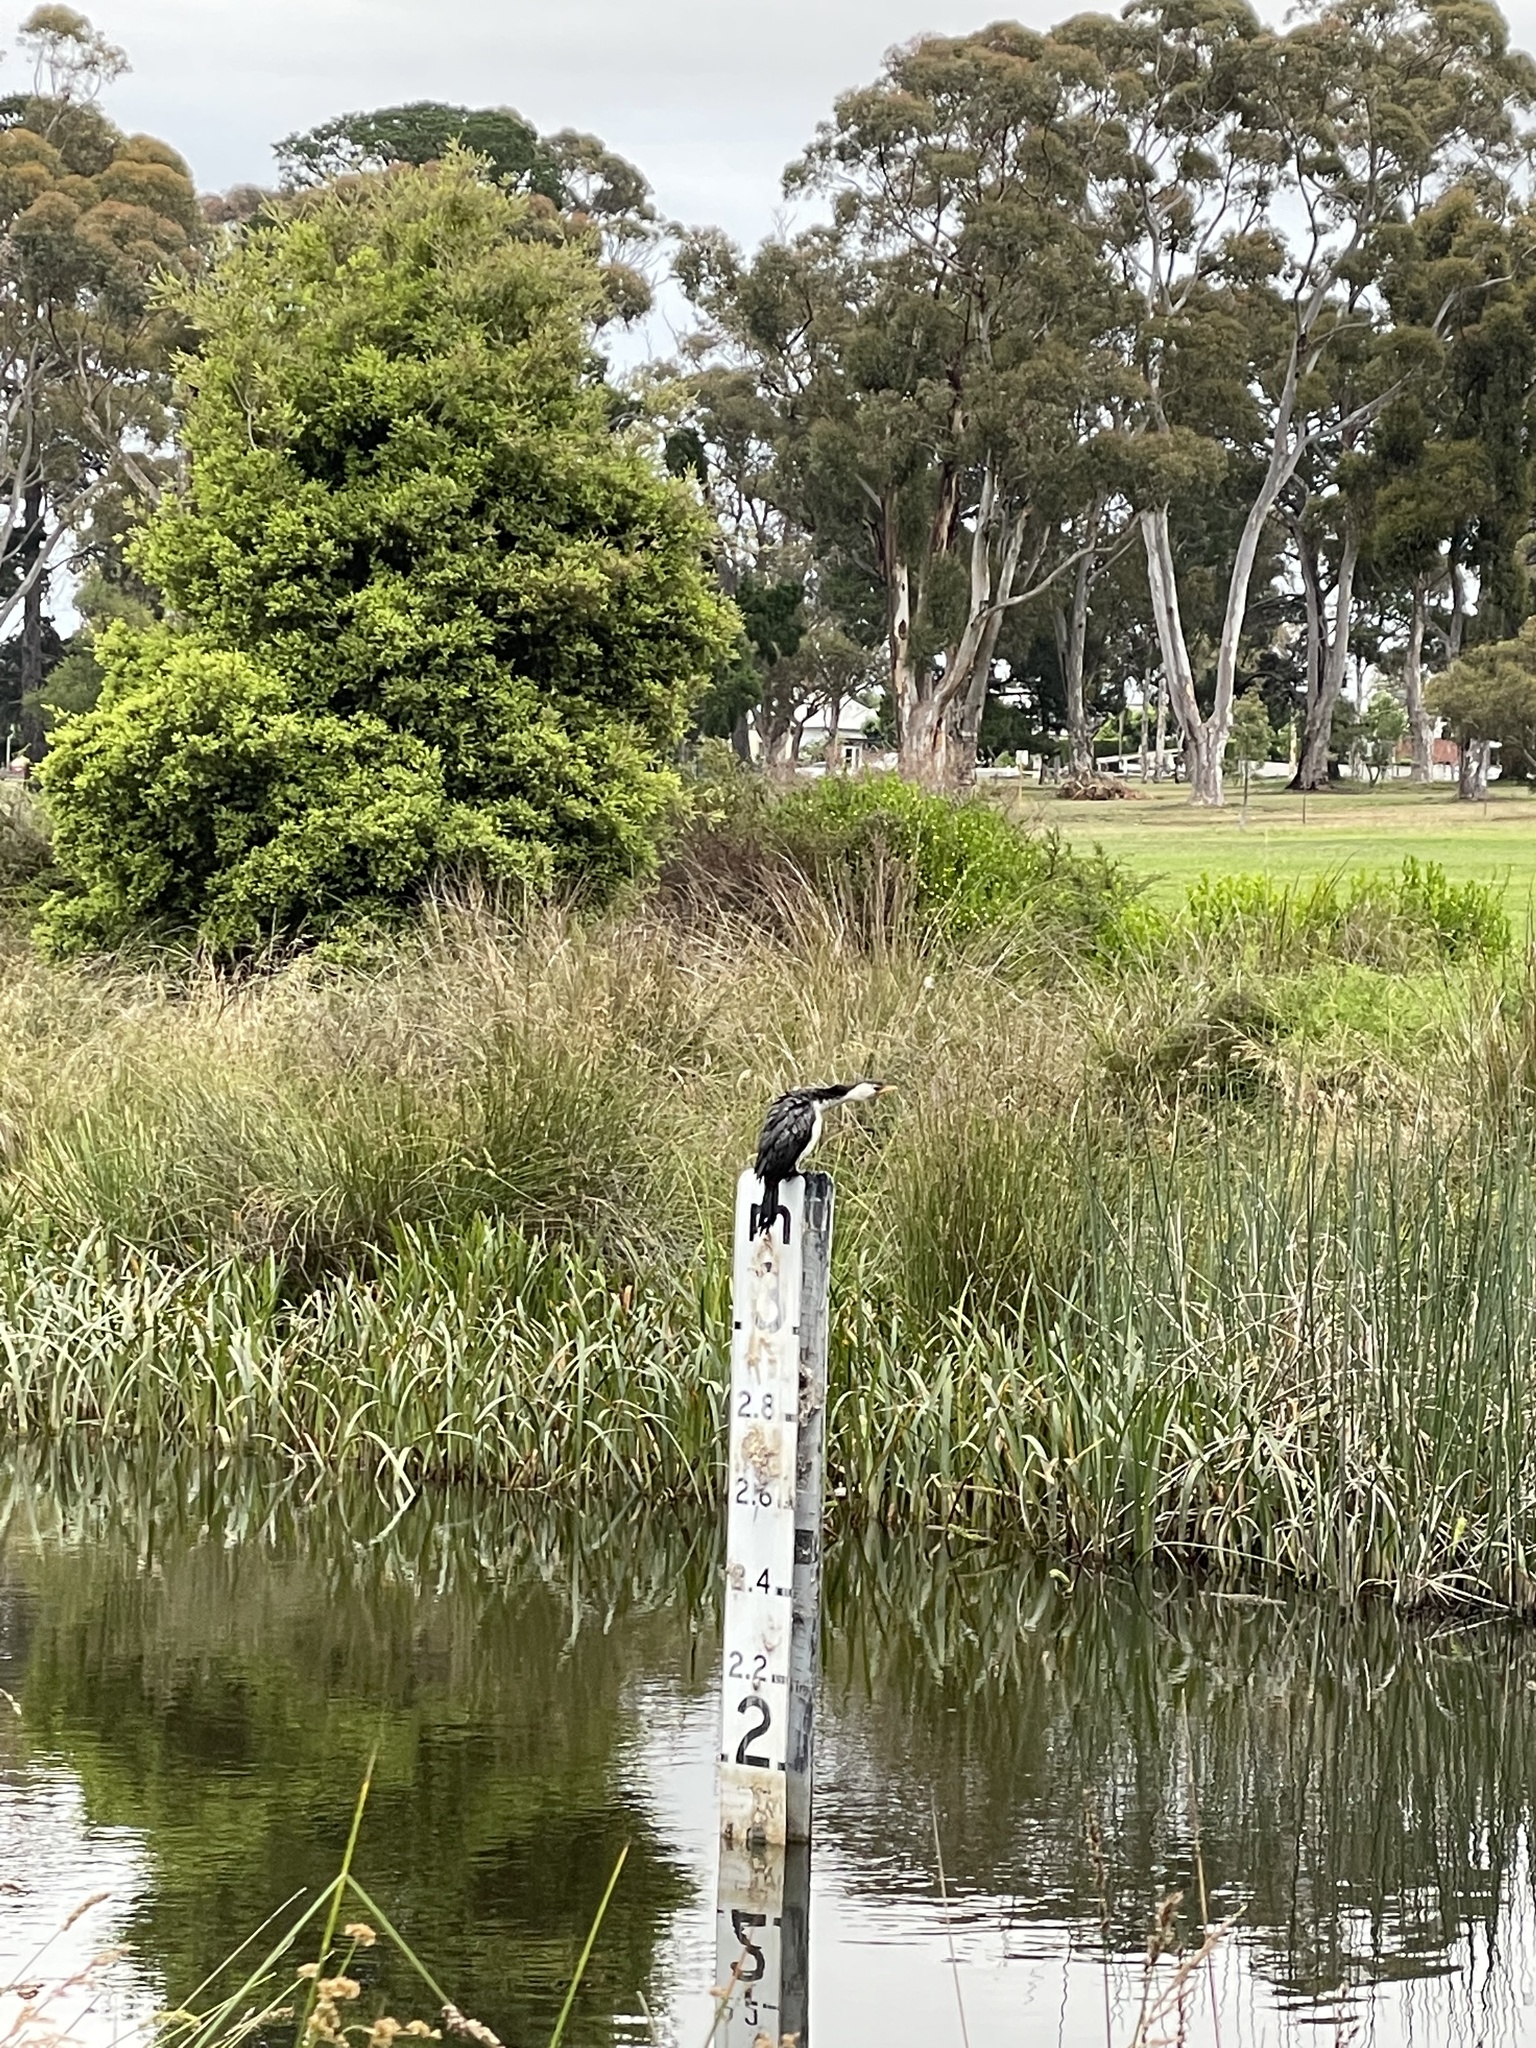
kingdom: Animalia
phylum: Chordata
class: Aves
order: Suliformes
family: Phalacrocoracidae
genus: Microcarbo
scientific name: Microcarbo melanoleucos
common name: Little pied cormorant
